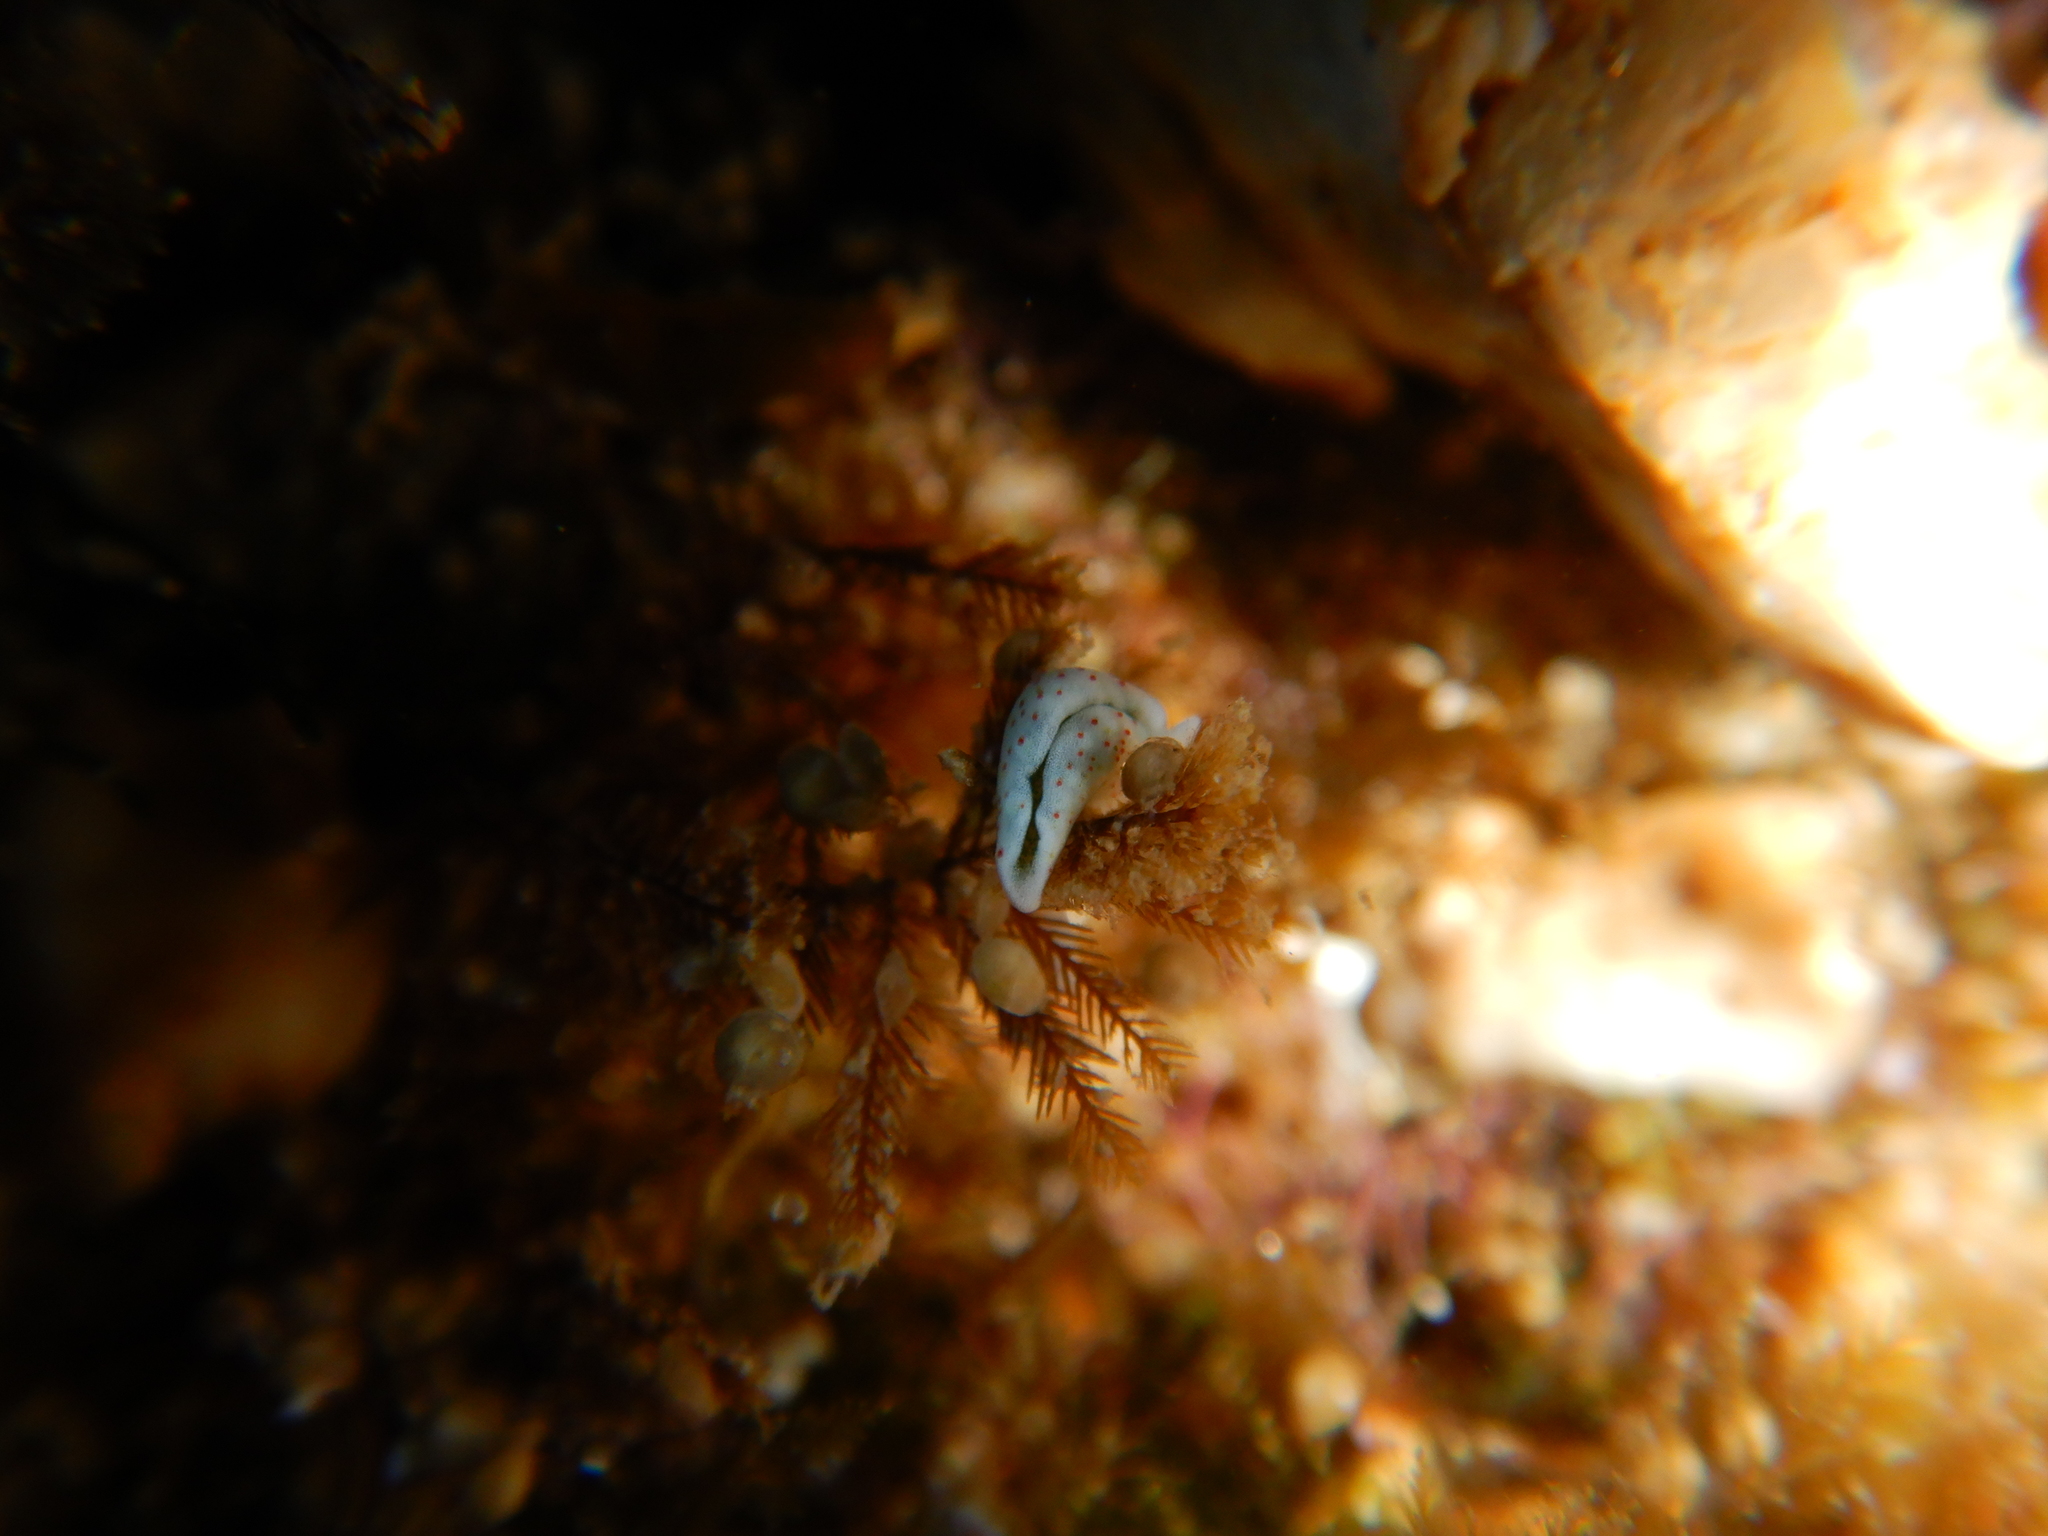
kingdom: Animalia
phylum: Mollusca
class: Gastropoda
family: Plakobranchidae
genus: Elysia
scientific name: Elysia timida
